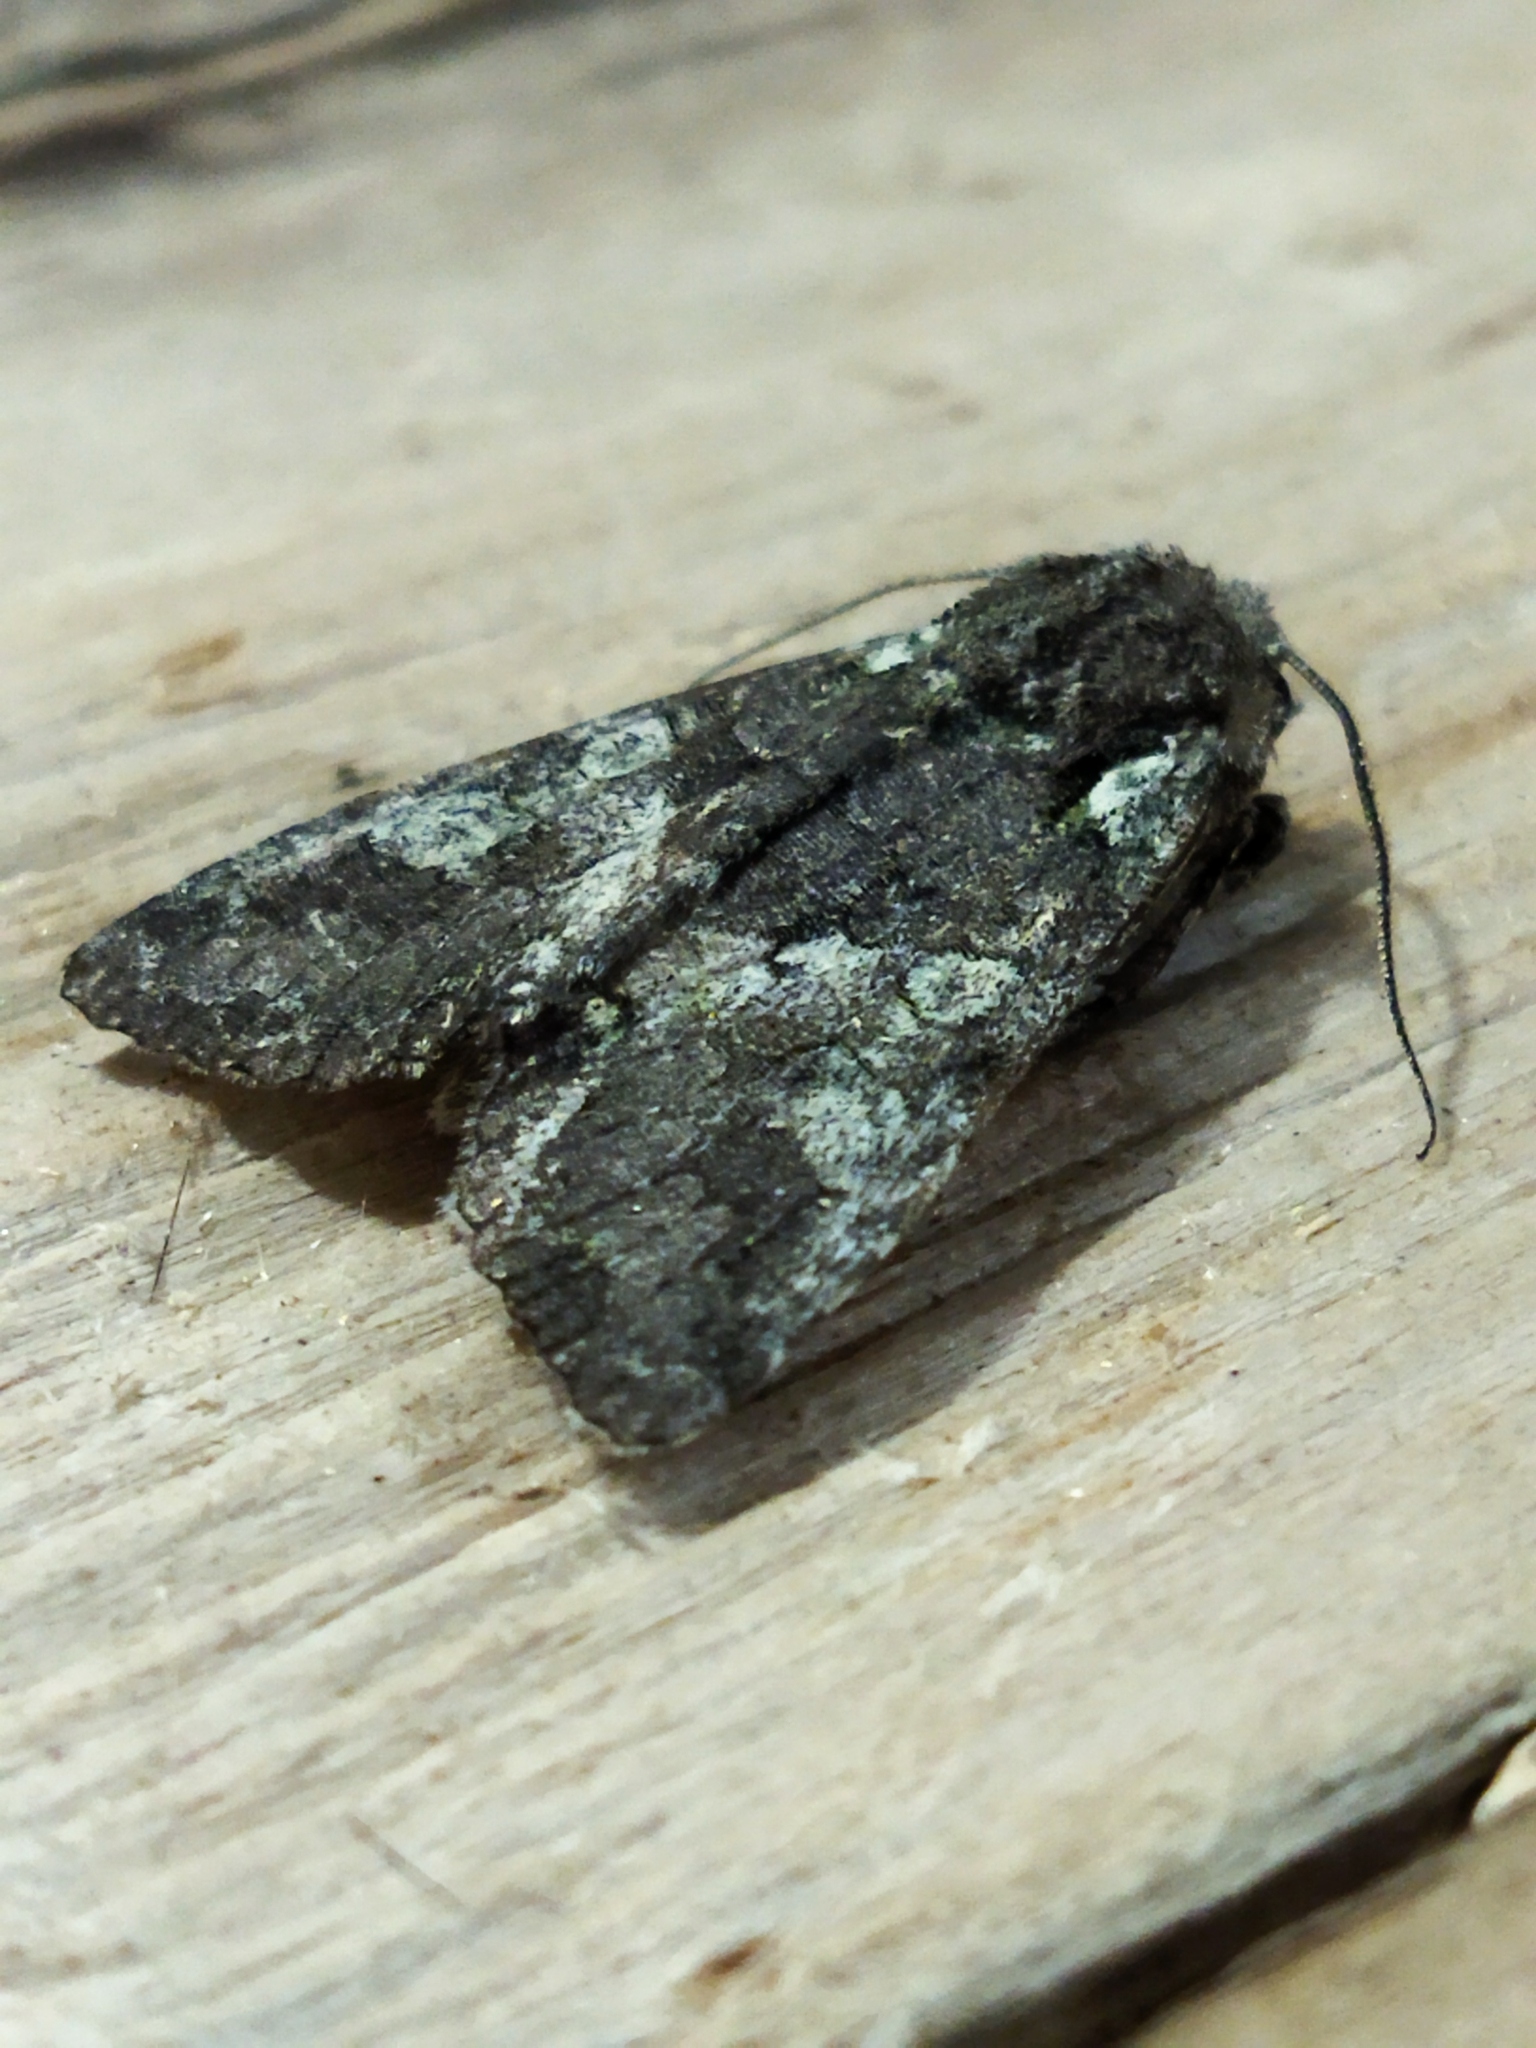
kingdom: Animalia
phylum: Arthropoda
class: Insecta
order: Lepidoptera
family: Noctuidae
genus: Dichonia
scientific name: Dichonia aeruginea
